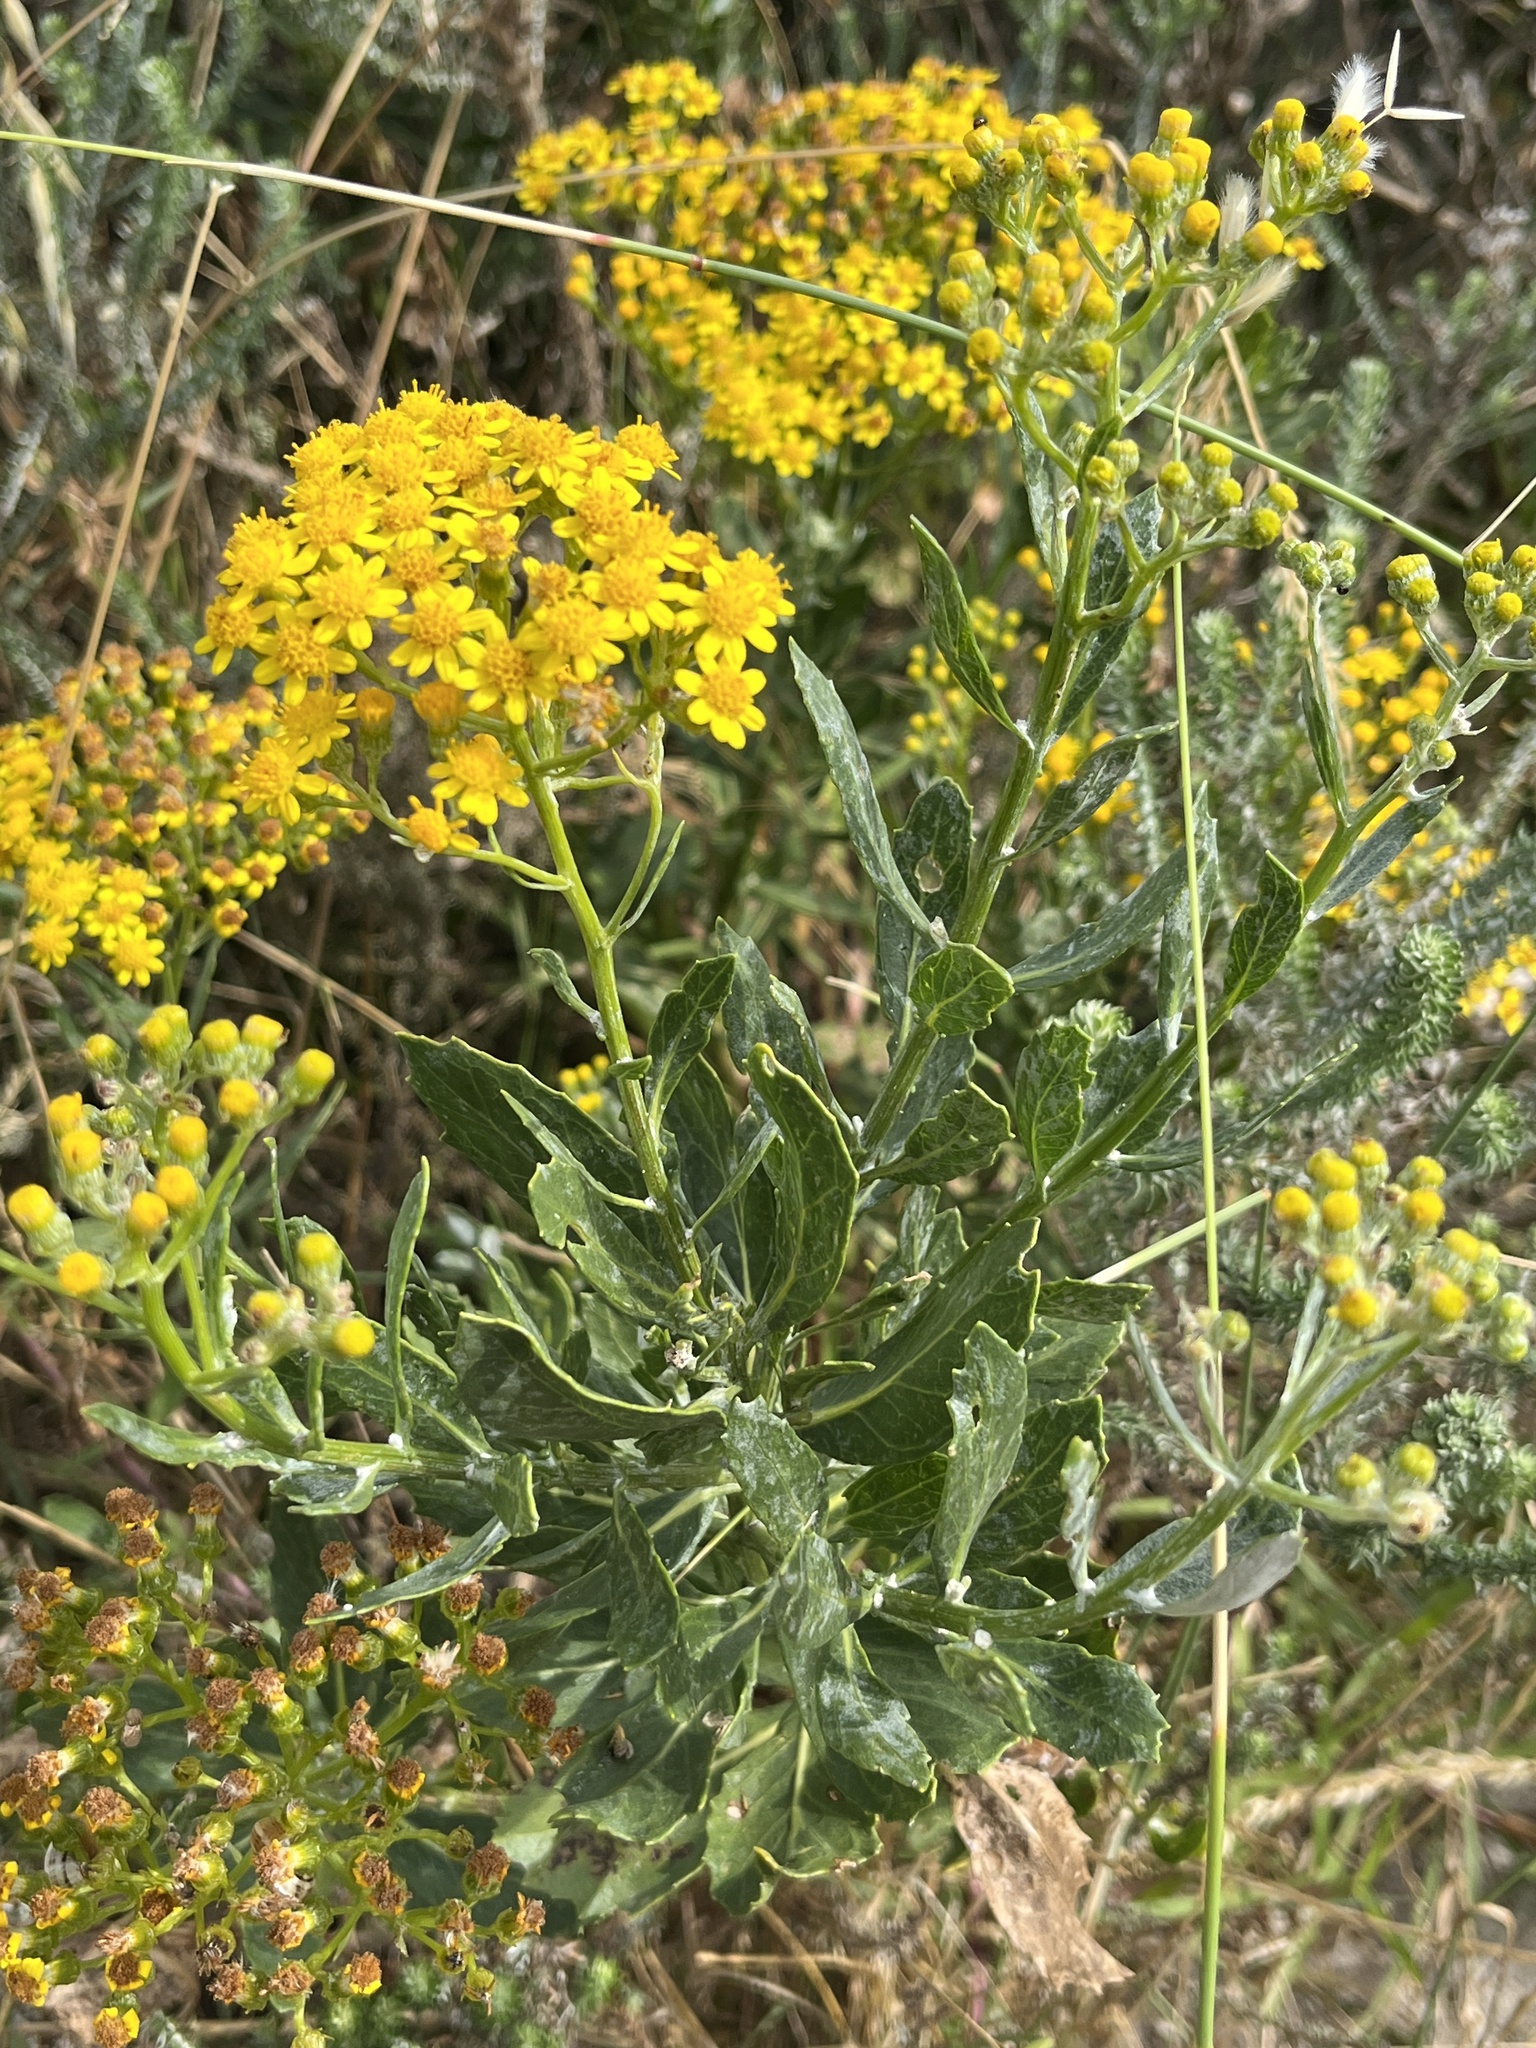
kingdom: Plantae
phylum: Tracheophyta
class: Magnoliopsida
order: Asterales
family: Asteraceae
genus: Senecio
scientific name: Senecio halimifolius
